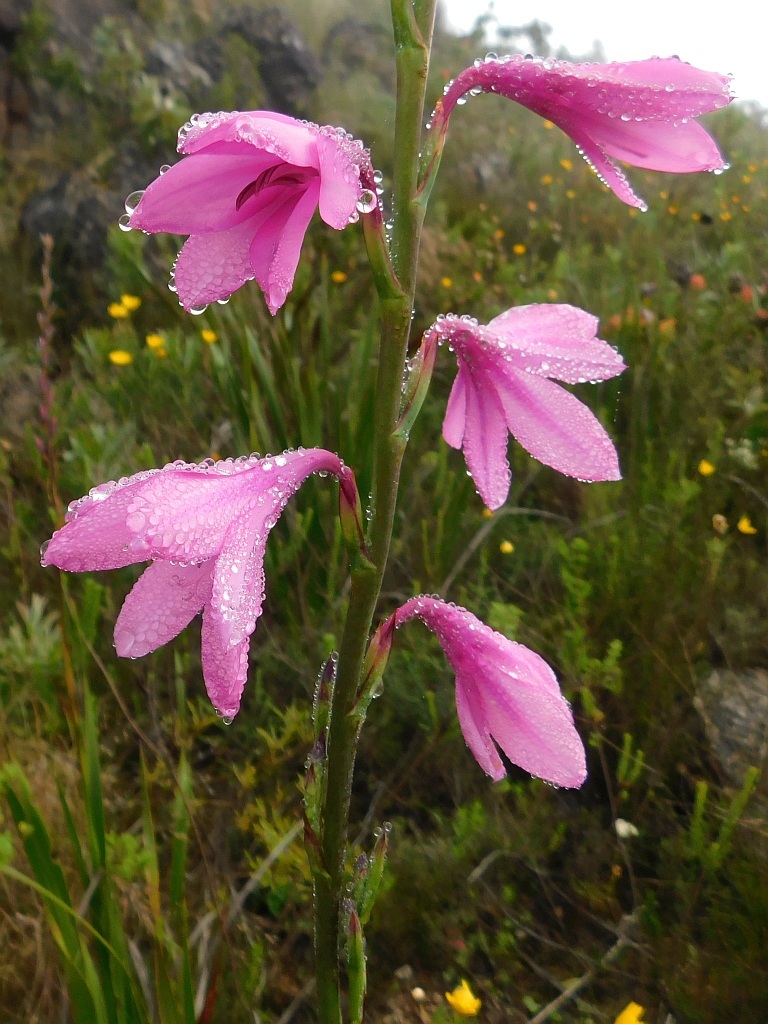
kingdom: Plantae
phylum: Tracheophyta
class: Liliopsida
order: Asparagales
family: Iridaceae
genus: Watsonia
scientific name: Watsonia borbonica
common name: Bugle-lily
